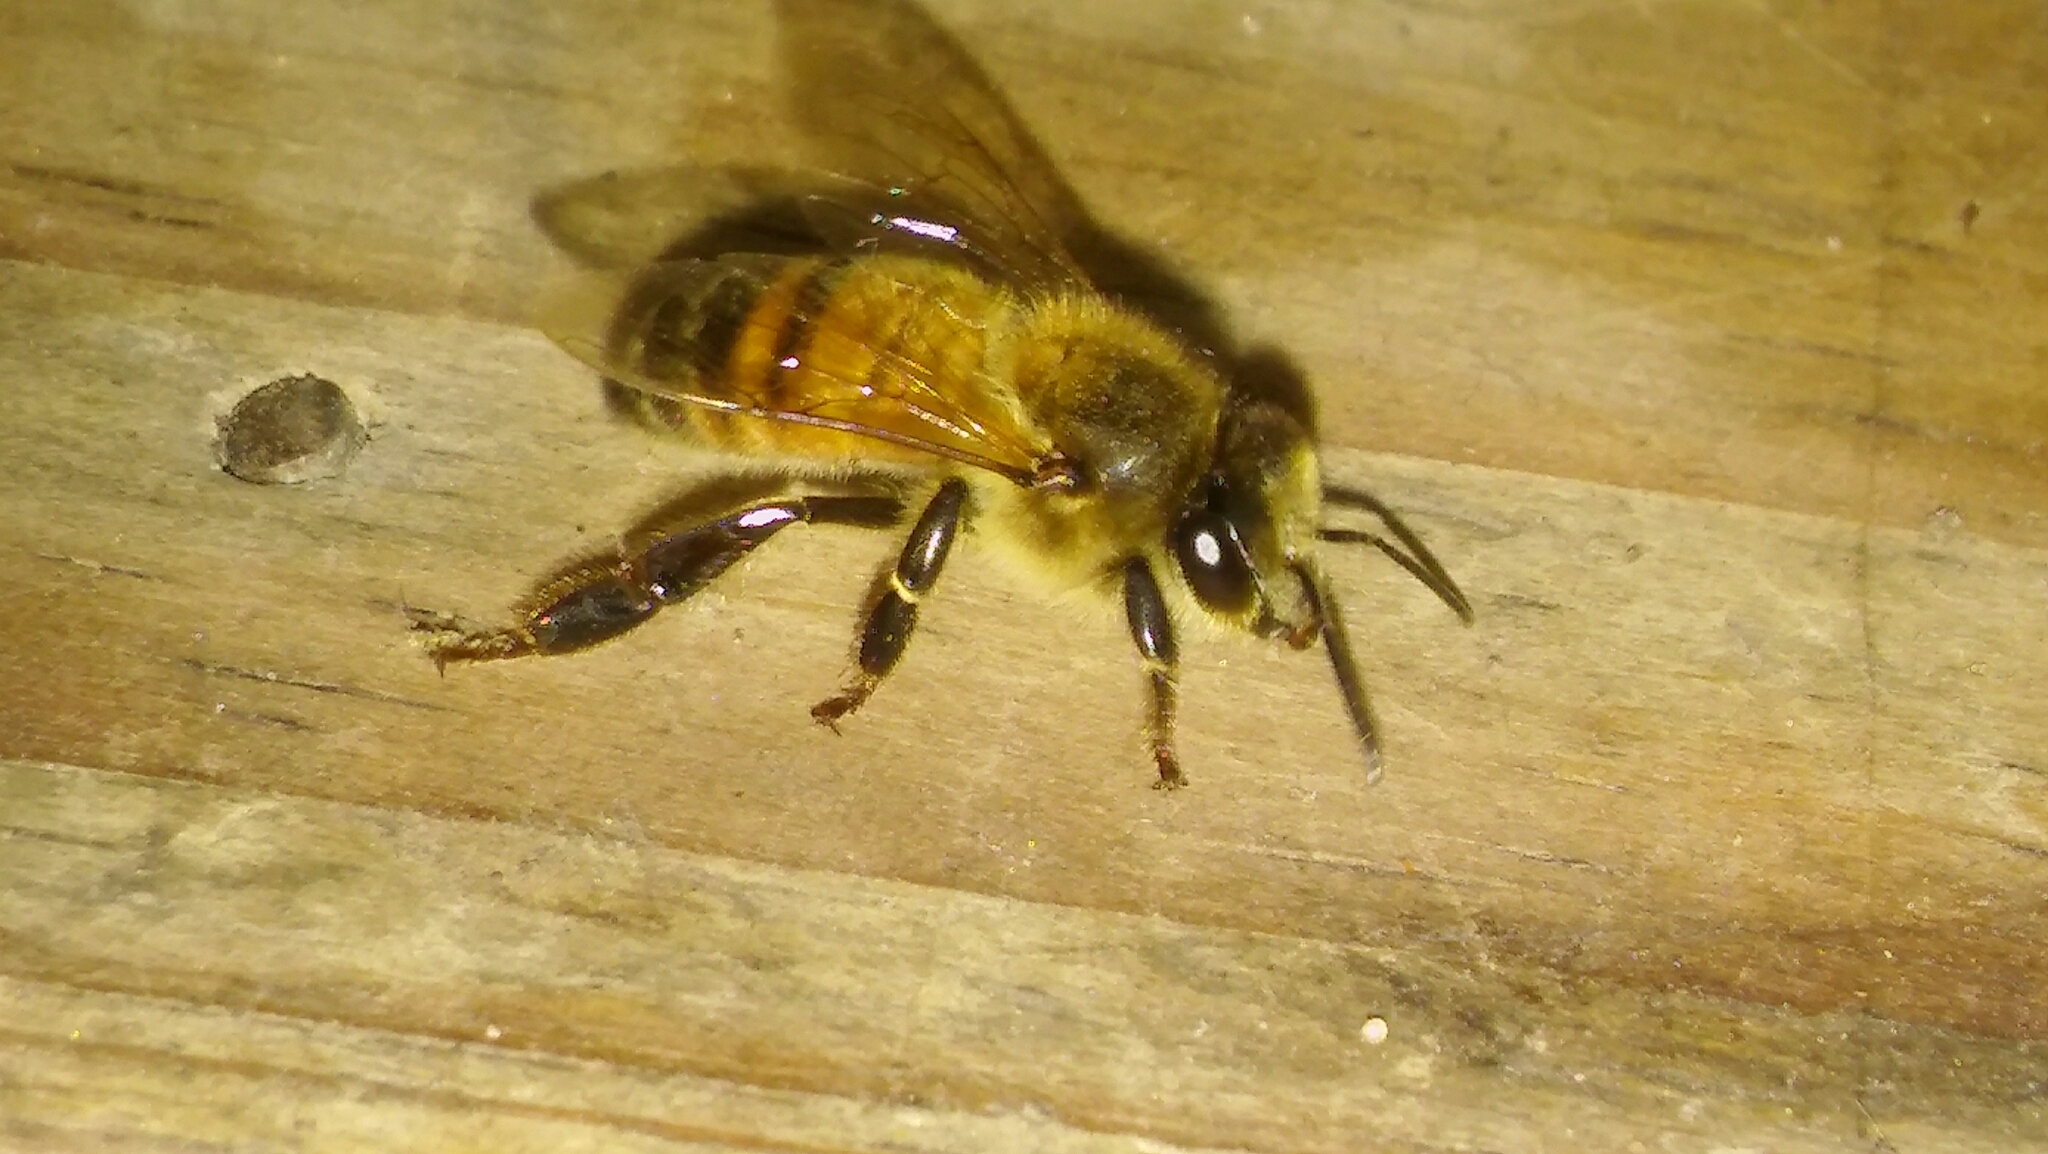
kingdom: Animalia
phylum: Arthropoda
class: Insecta
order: Hymenoptera
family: Apidae
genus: Apis
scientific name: Apis mellifera
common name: Honey bee
